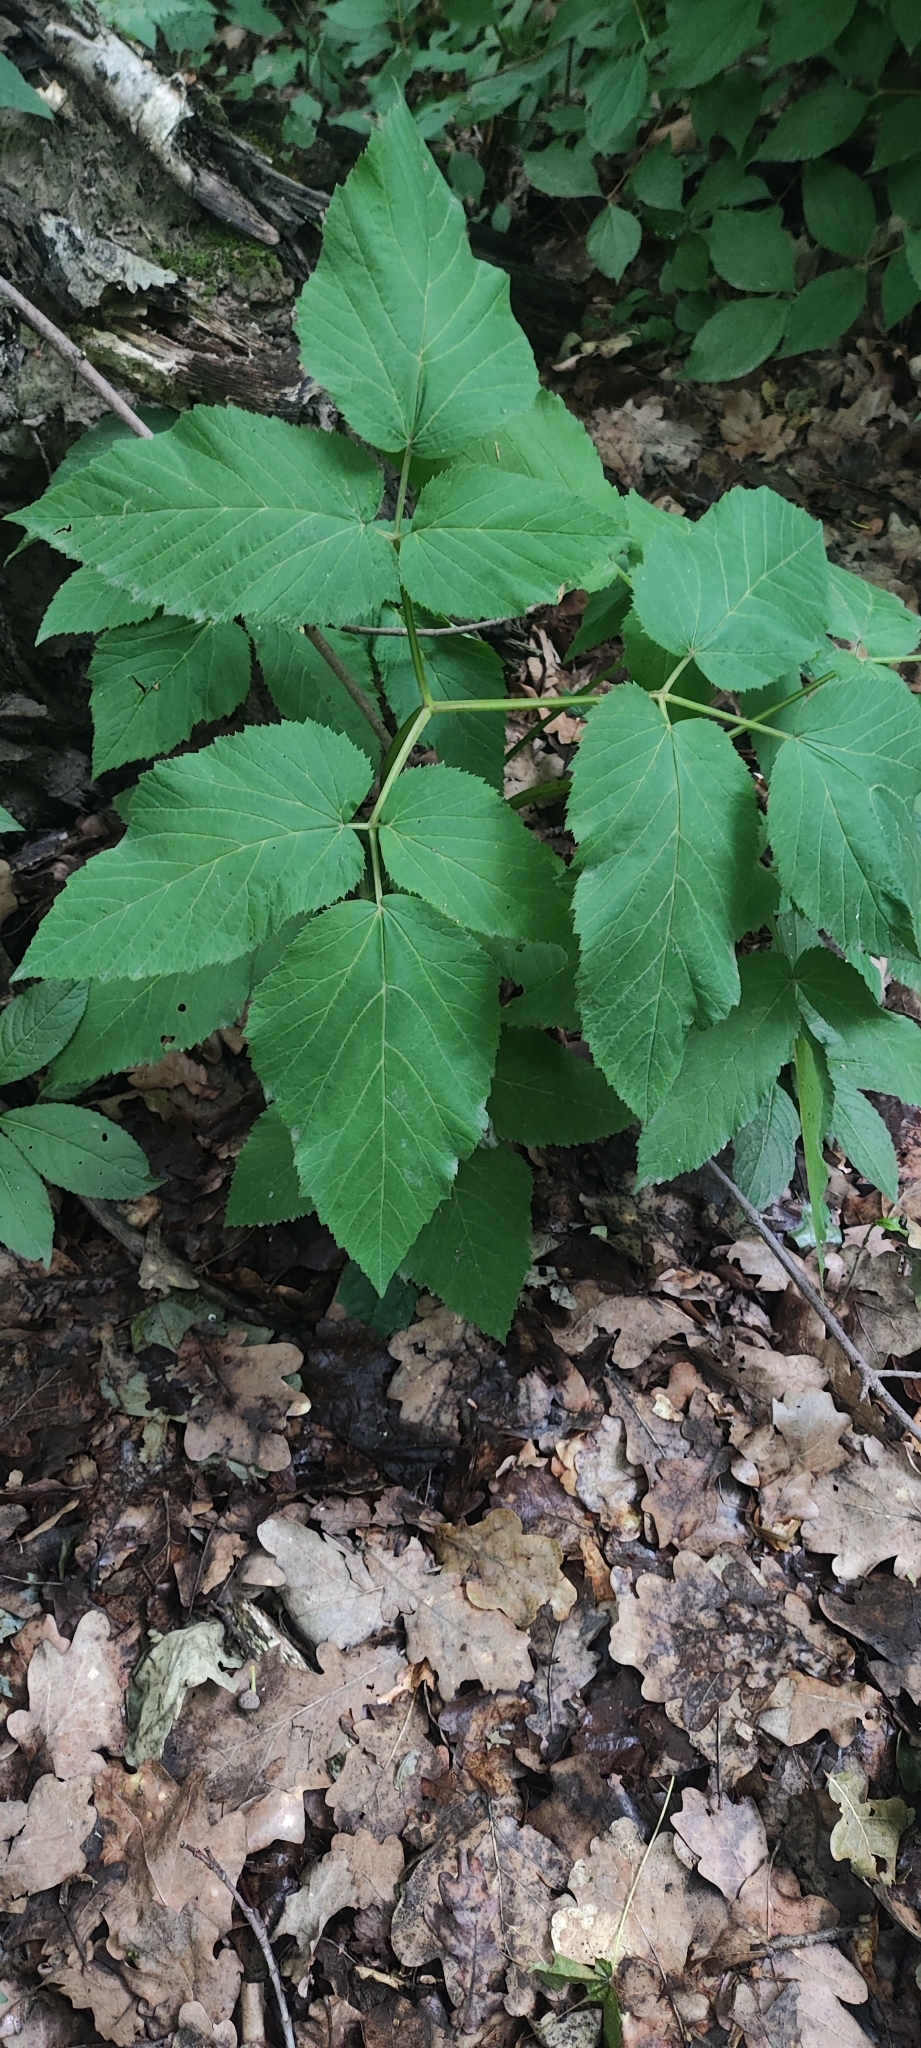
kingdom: Plantae
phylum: Tracheophyta
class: Magnoliopsida
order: Apiales
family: Apiaceae
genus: Aegopodium
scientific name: Aegopodium podagraria
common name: Ground-elder
